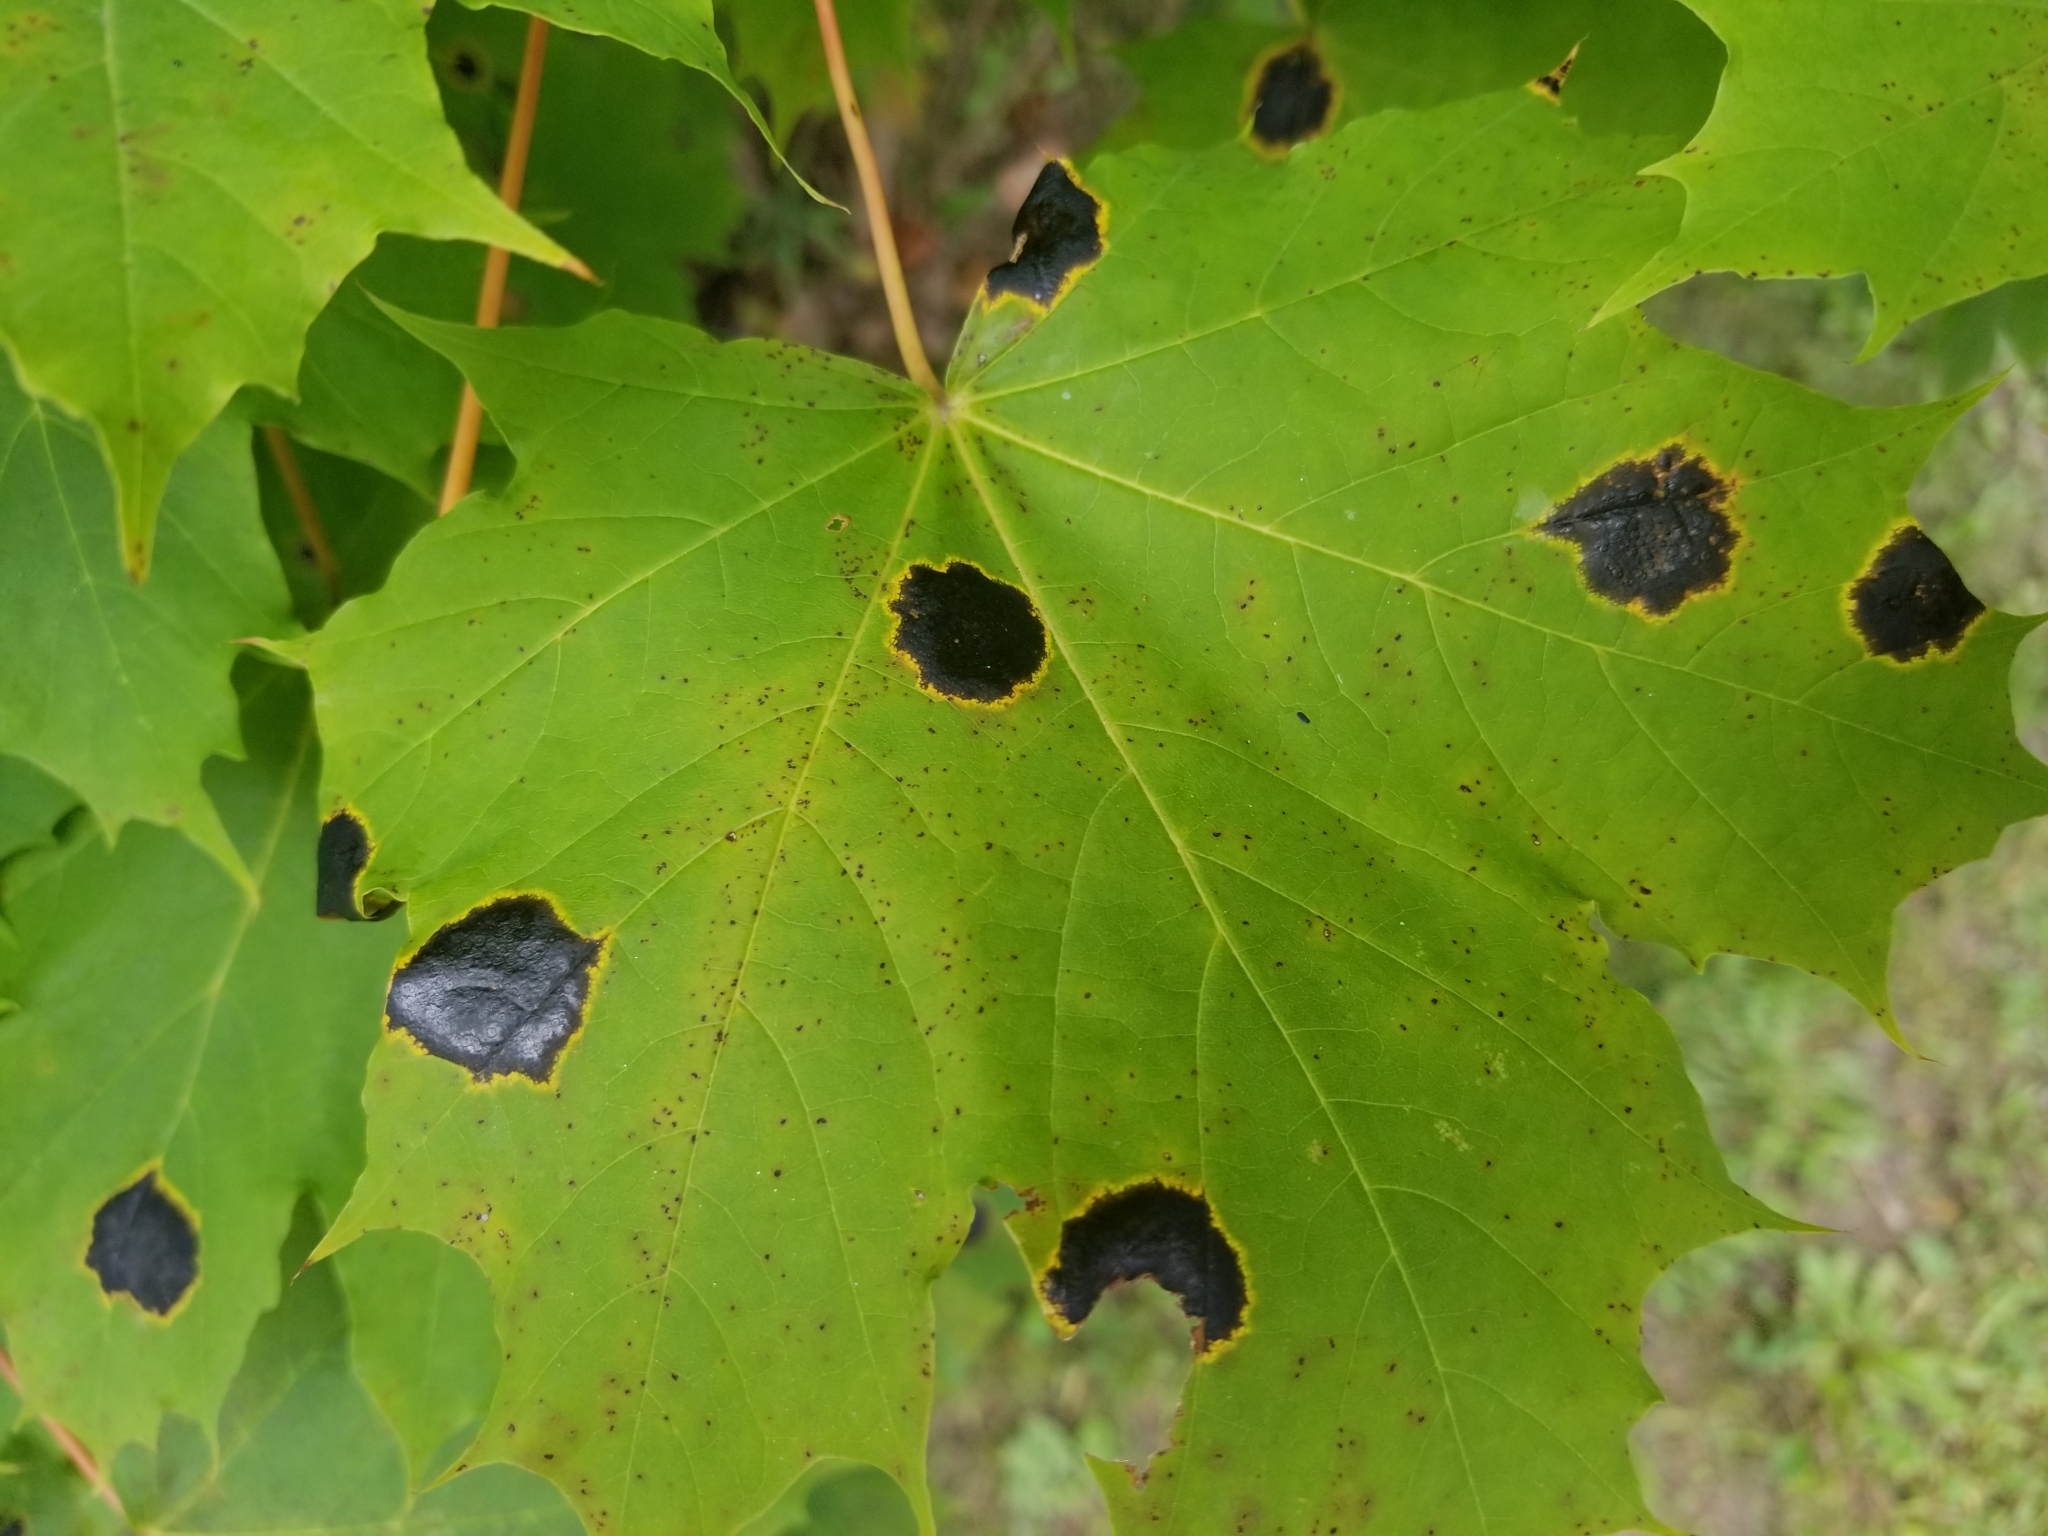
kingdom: Fungi
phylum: Ascomycota
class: Leotiomycetes
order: Rhytismatales
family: Rhytismataceae
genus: Rhytisma
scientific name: Rhytisma acerinum
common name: European tar spot
